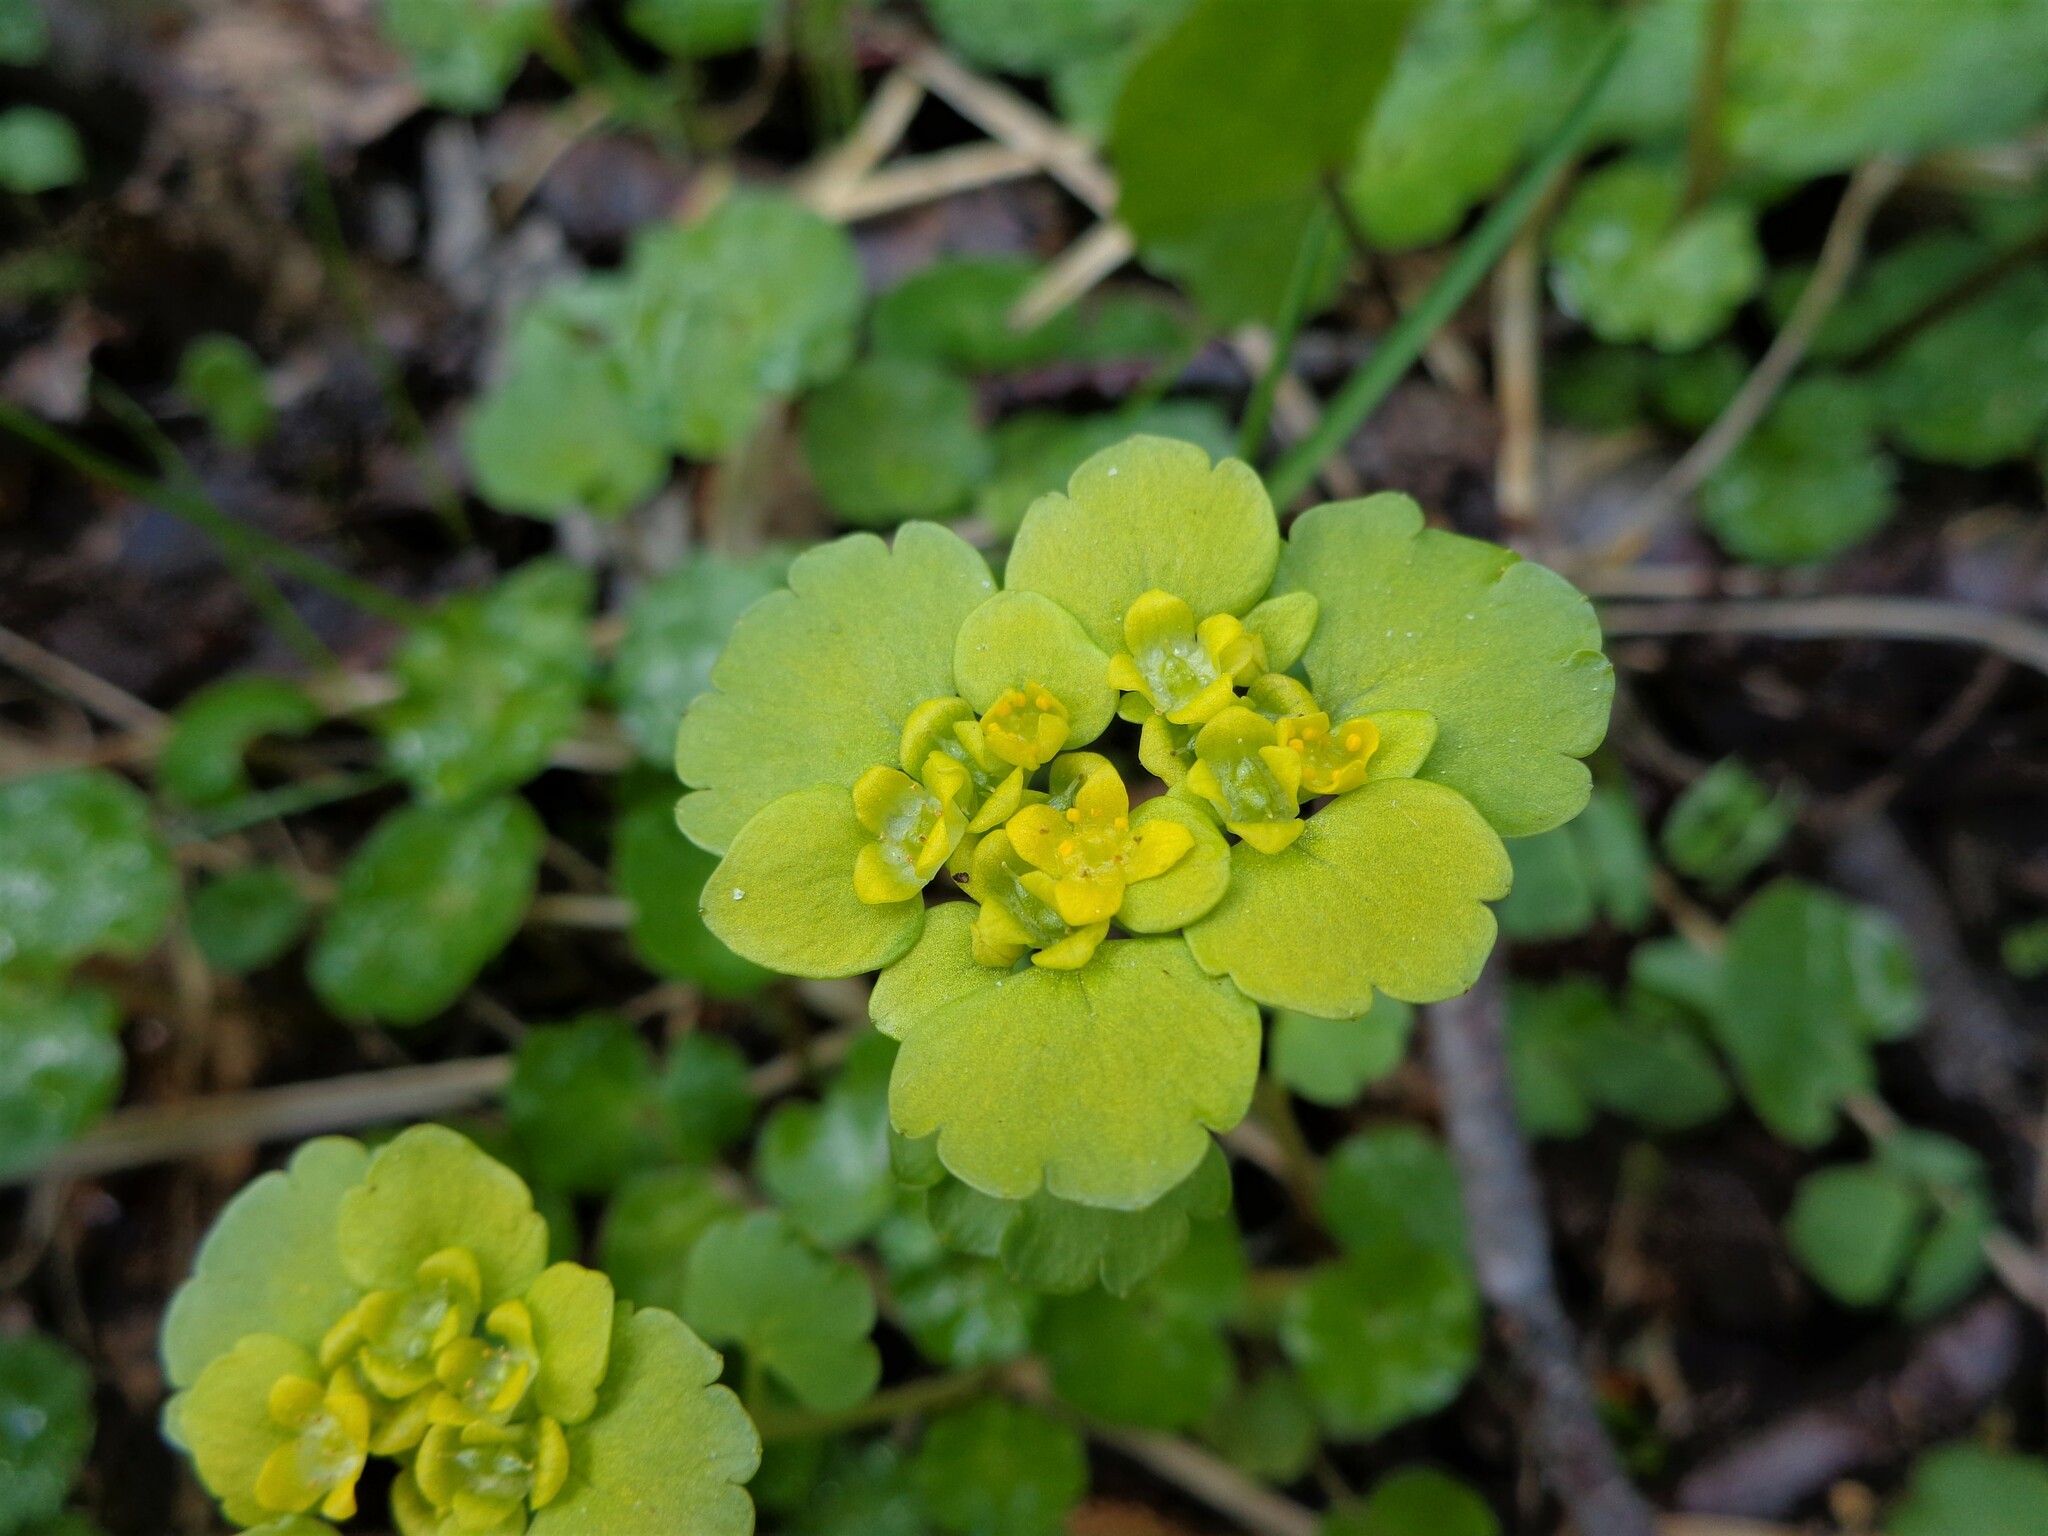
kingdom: Plantae
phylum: Tracheophyta
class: Magnoliopsida
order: Saxifragales
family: Saxifragaceae
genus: Chrysosplenium
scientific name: Chrysosplenium alternifolium
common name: Alternate-leaved golden-saxifrage
